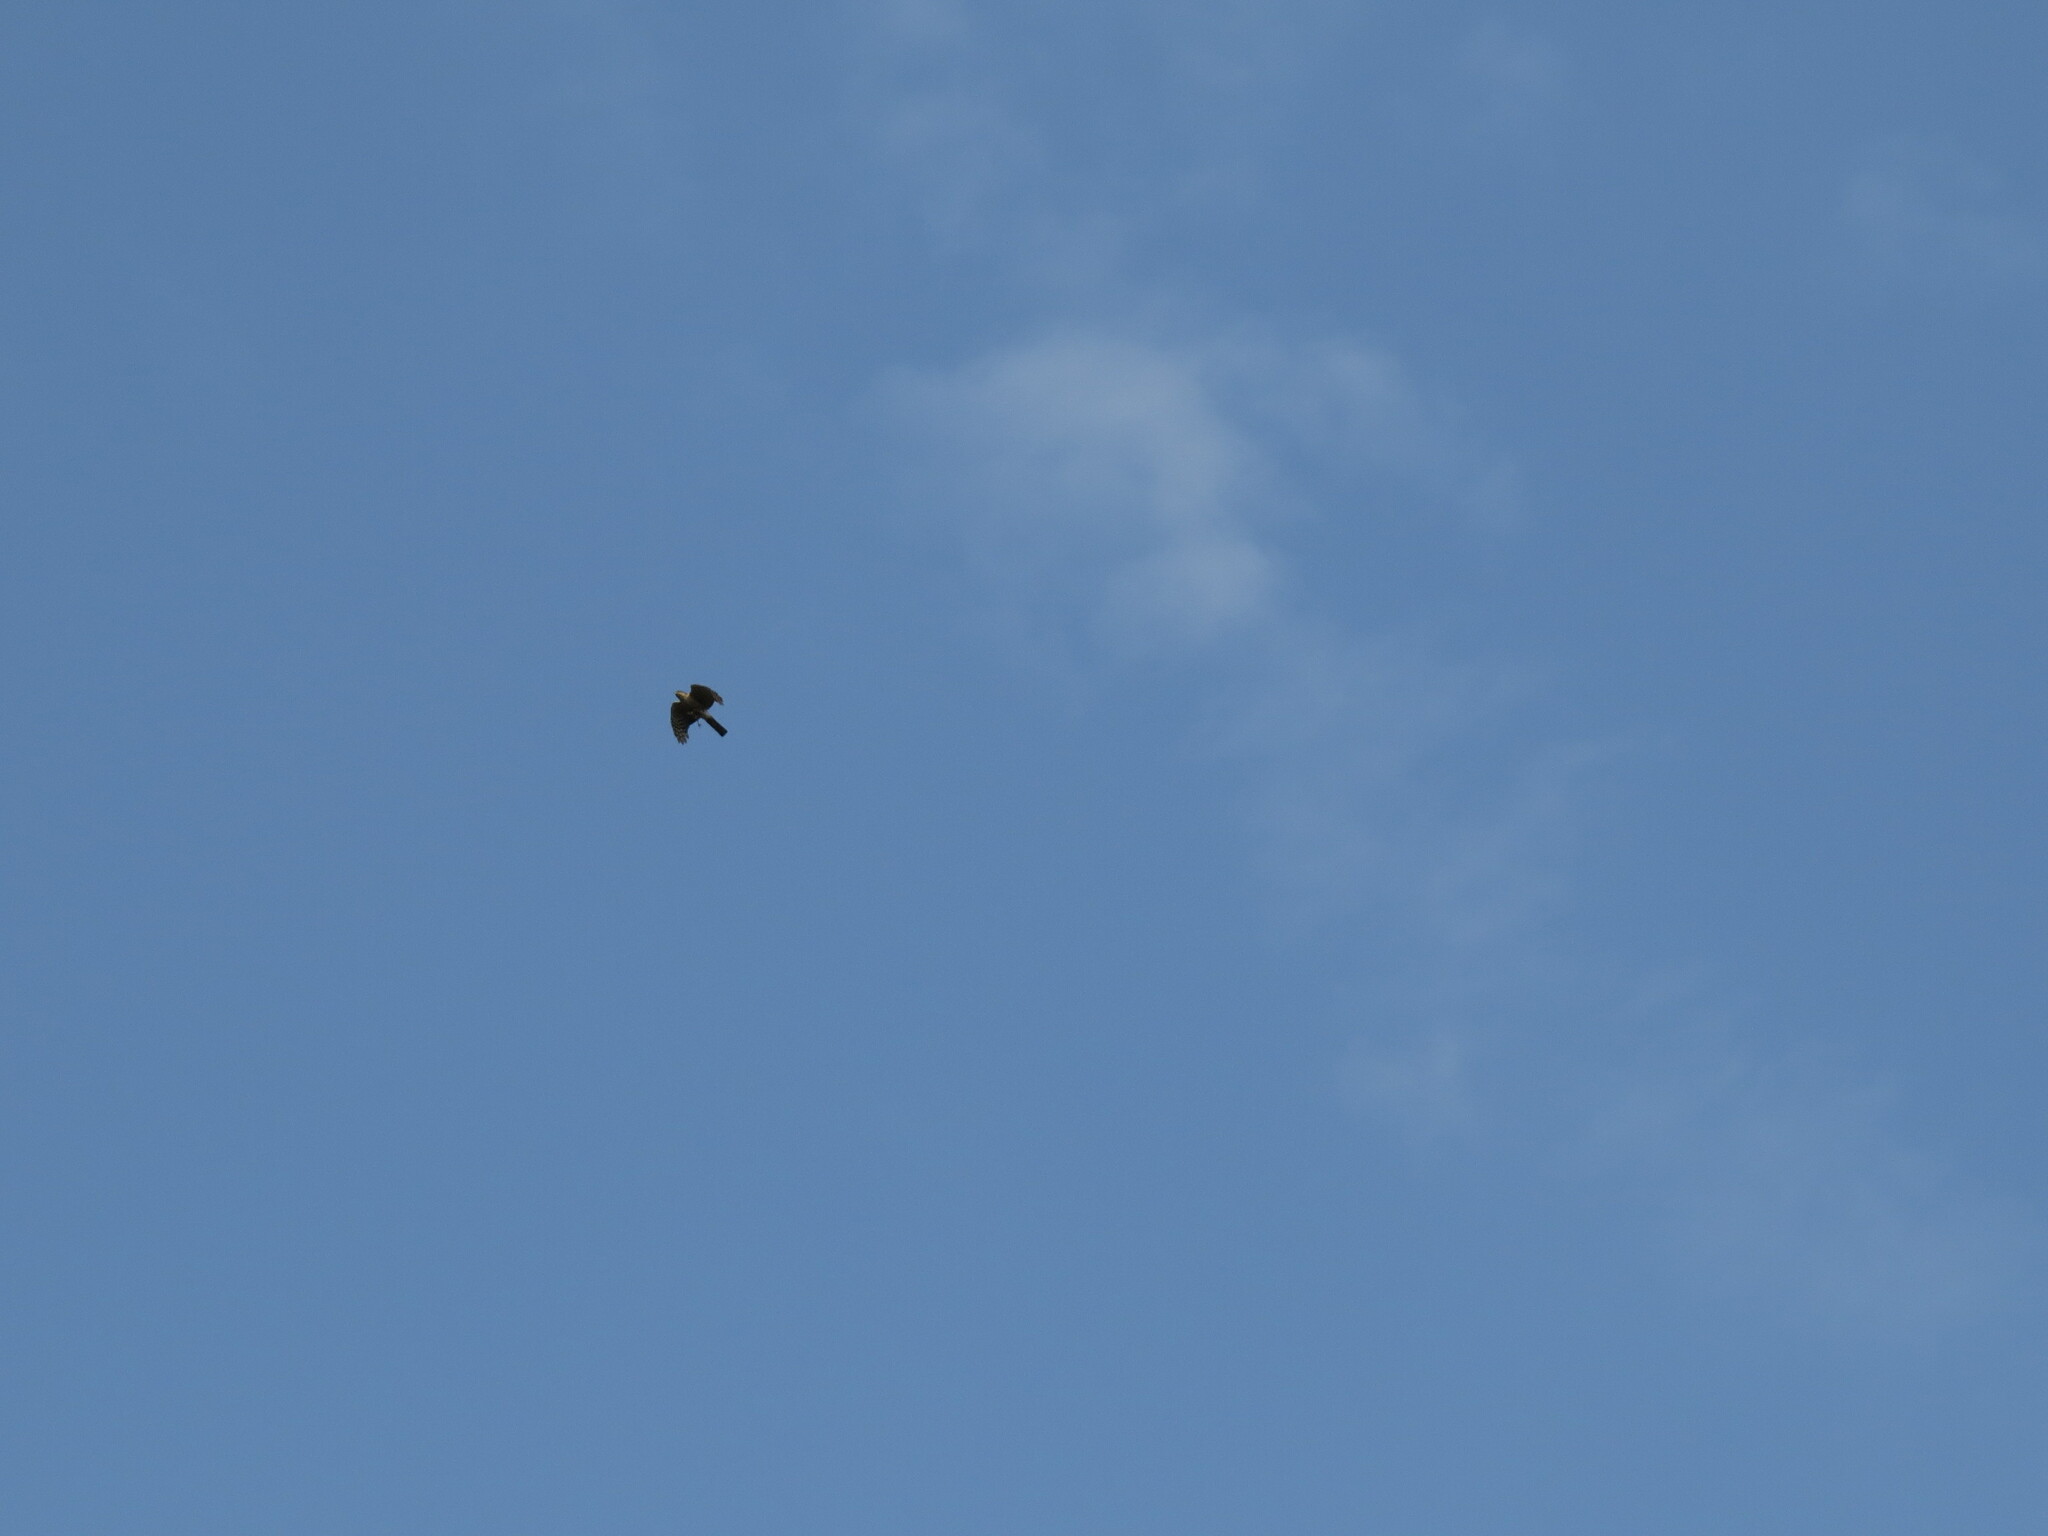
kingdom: Animalia
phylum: Chordata
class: Aves
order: Accipitriformes
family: Accipitridae
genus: Accipiter
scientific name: Accipiter nisus
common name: Eurasian sparrowhawk
